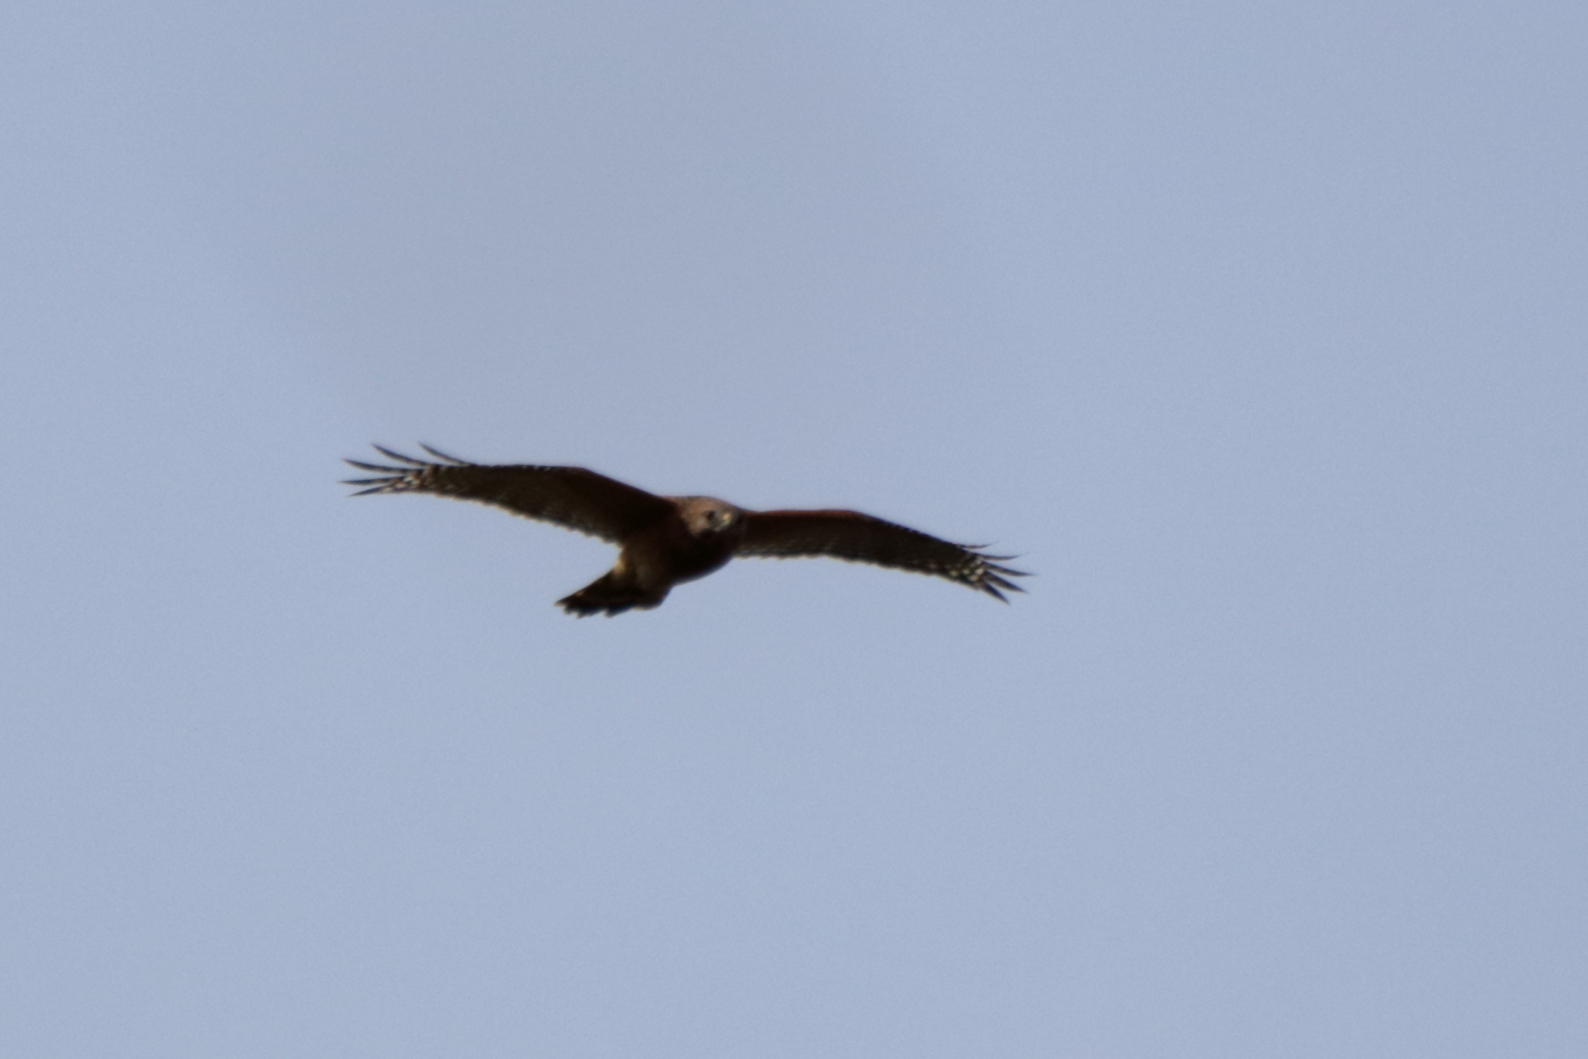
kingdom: Animalia
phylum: Chordata
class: Aves
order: Accipitriformes
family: Accipitridae
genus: Buteo
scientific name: Buteo lineatus
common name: Red-shouldered hawk
